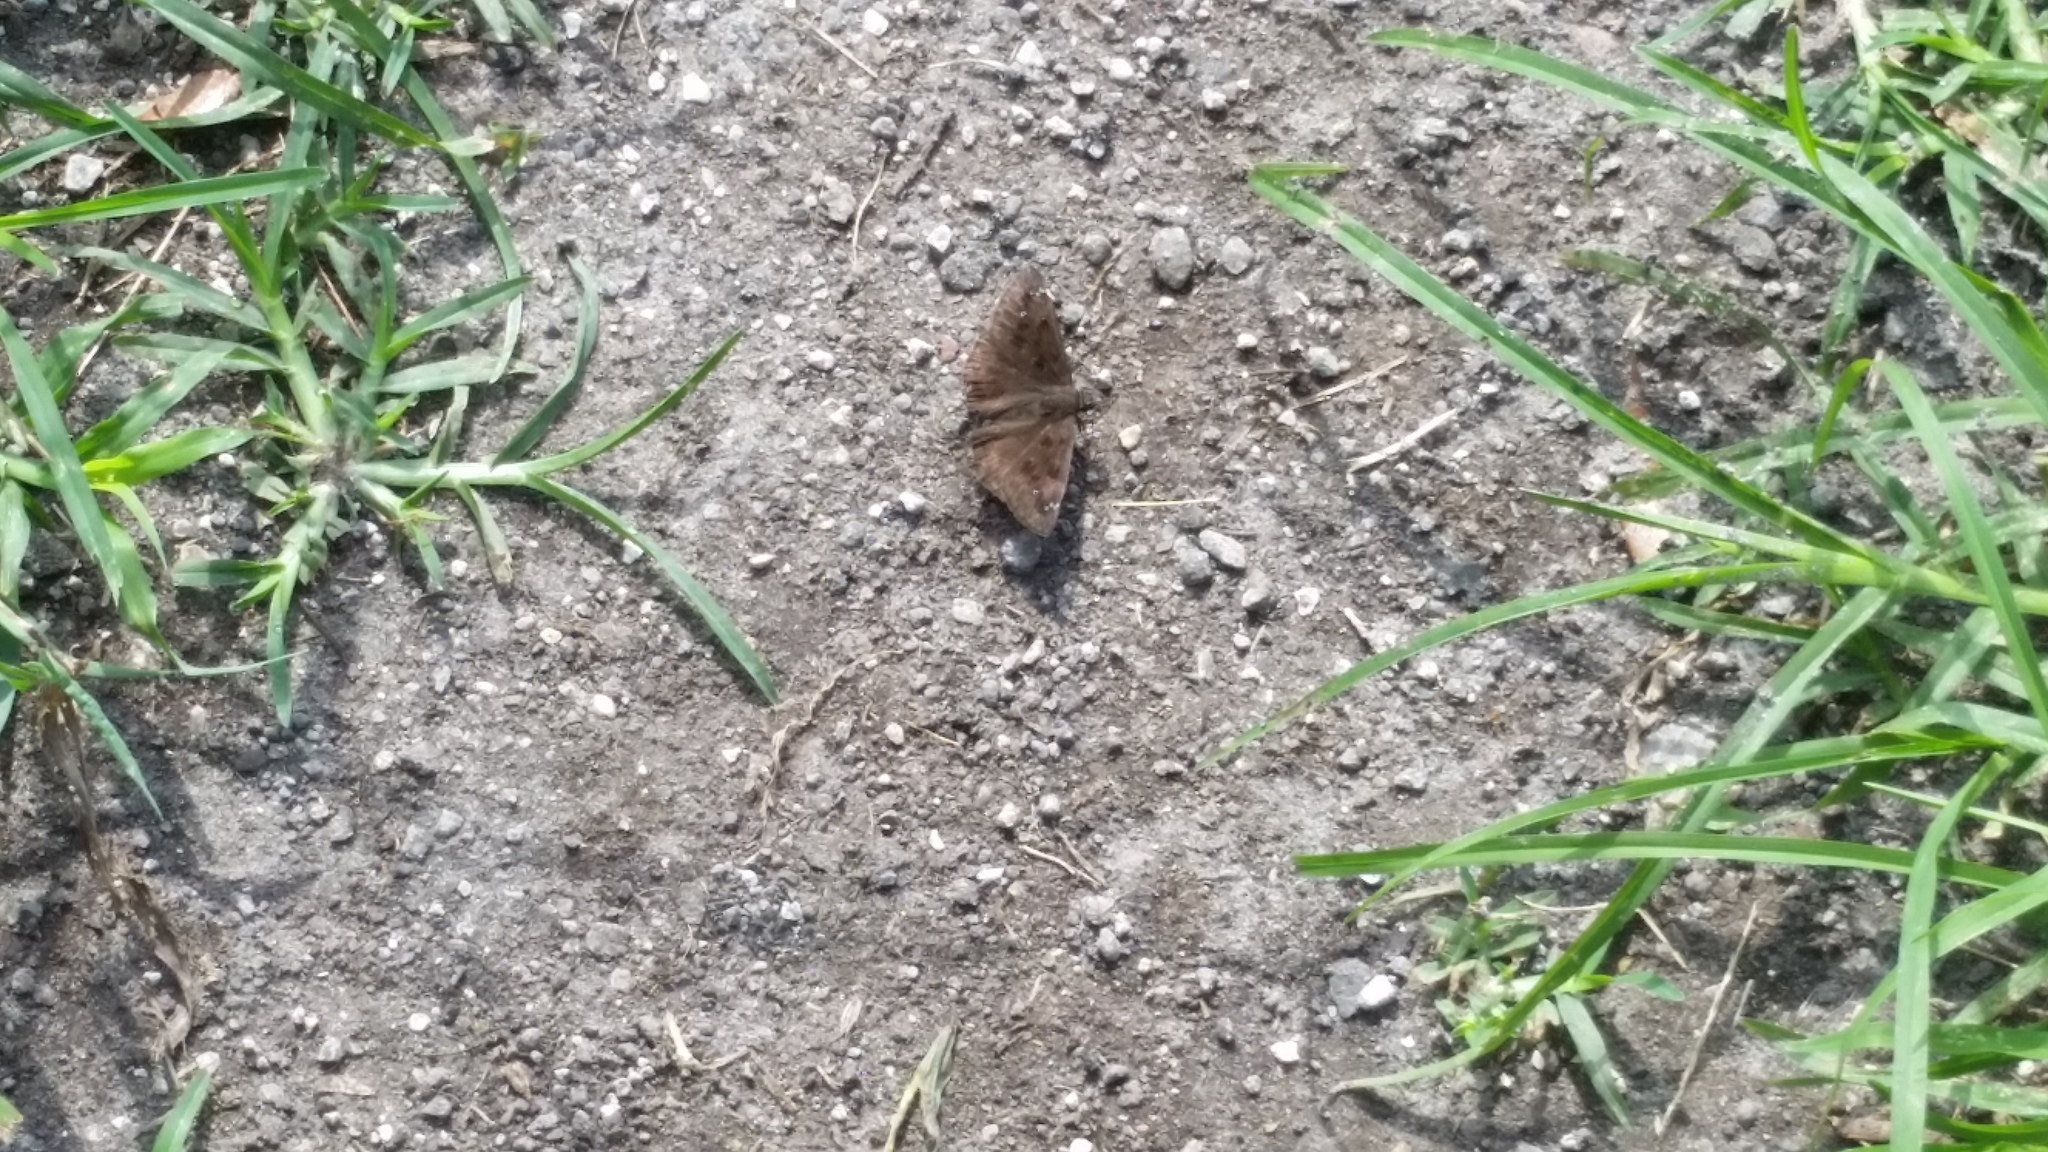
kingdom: Animalia
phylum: Arthropoda
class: Insecta
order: Lepidoptera
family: Hesperiidae
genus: Erynnis
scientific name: Erynnis horatius
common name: Horace's duskywing
